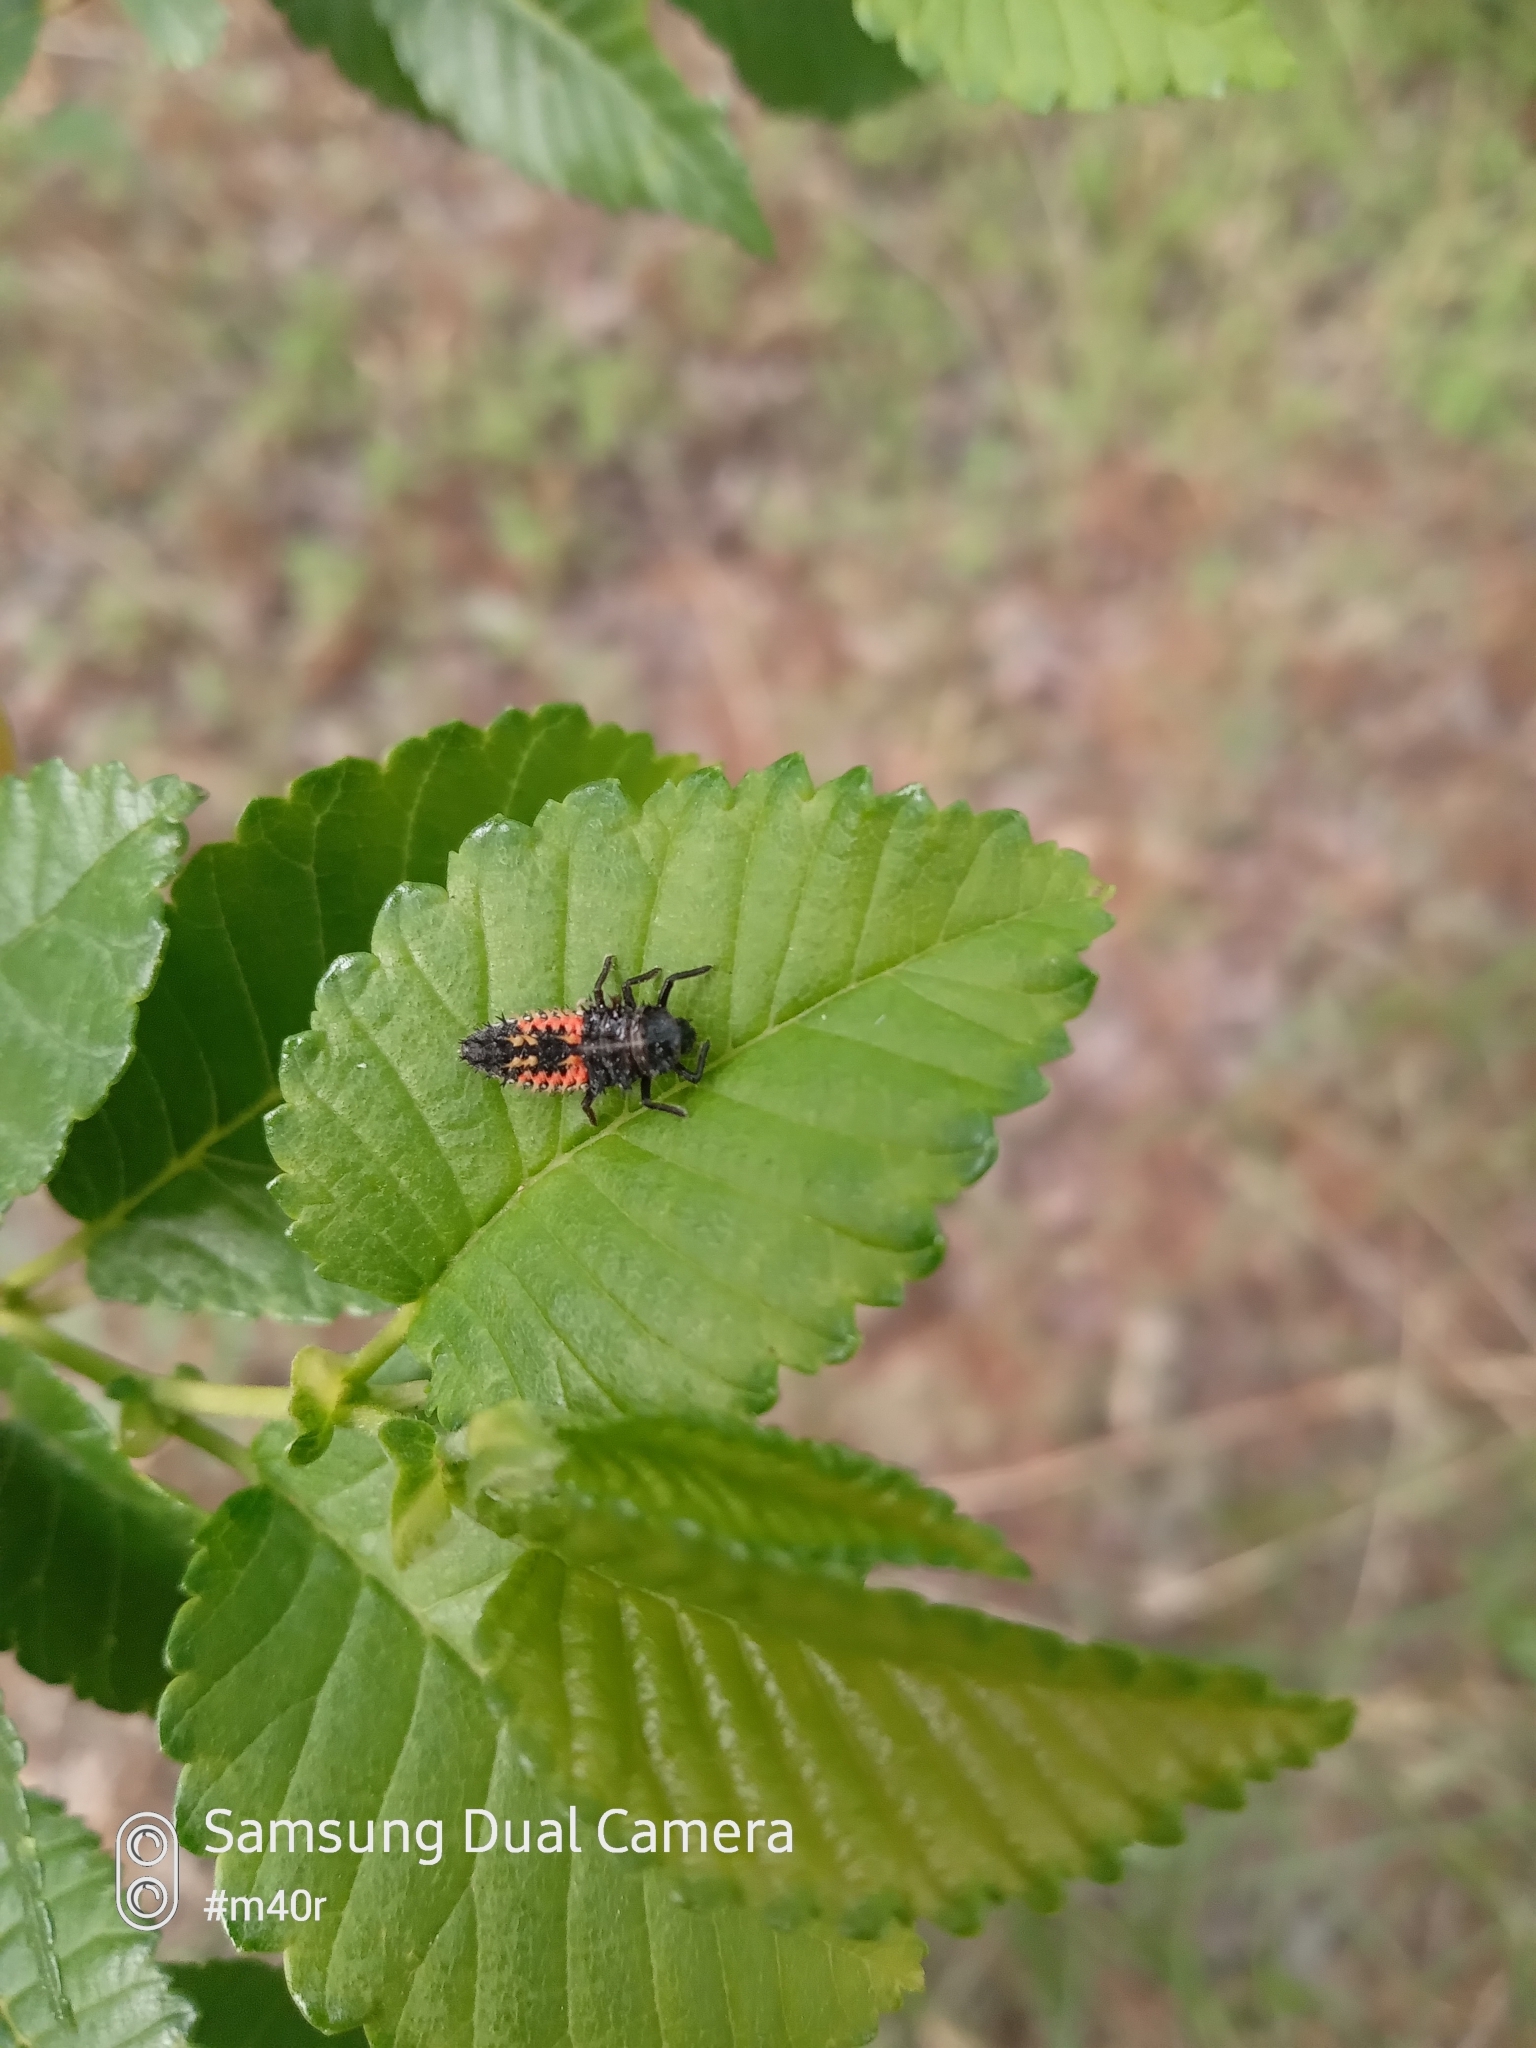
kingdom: Animalia
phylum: Arthropoda
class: Insecta
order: Coleoptera
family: Coccinellidae
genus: Harmonia
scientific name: Harmonia axyridis
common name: Harlequin ladybird
